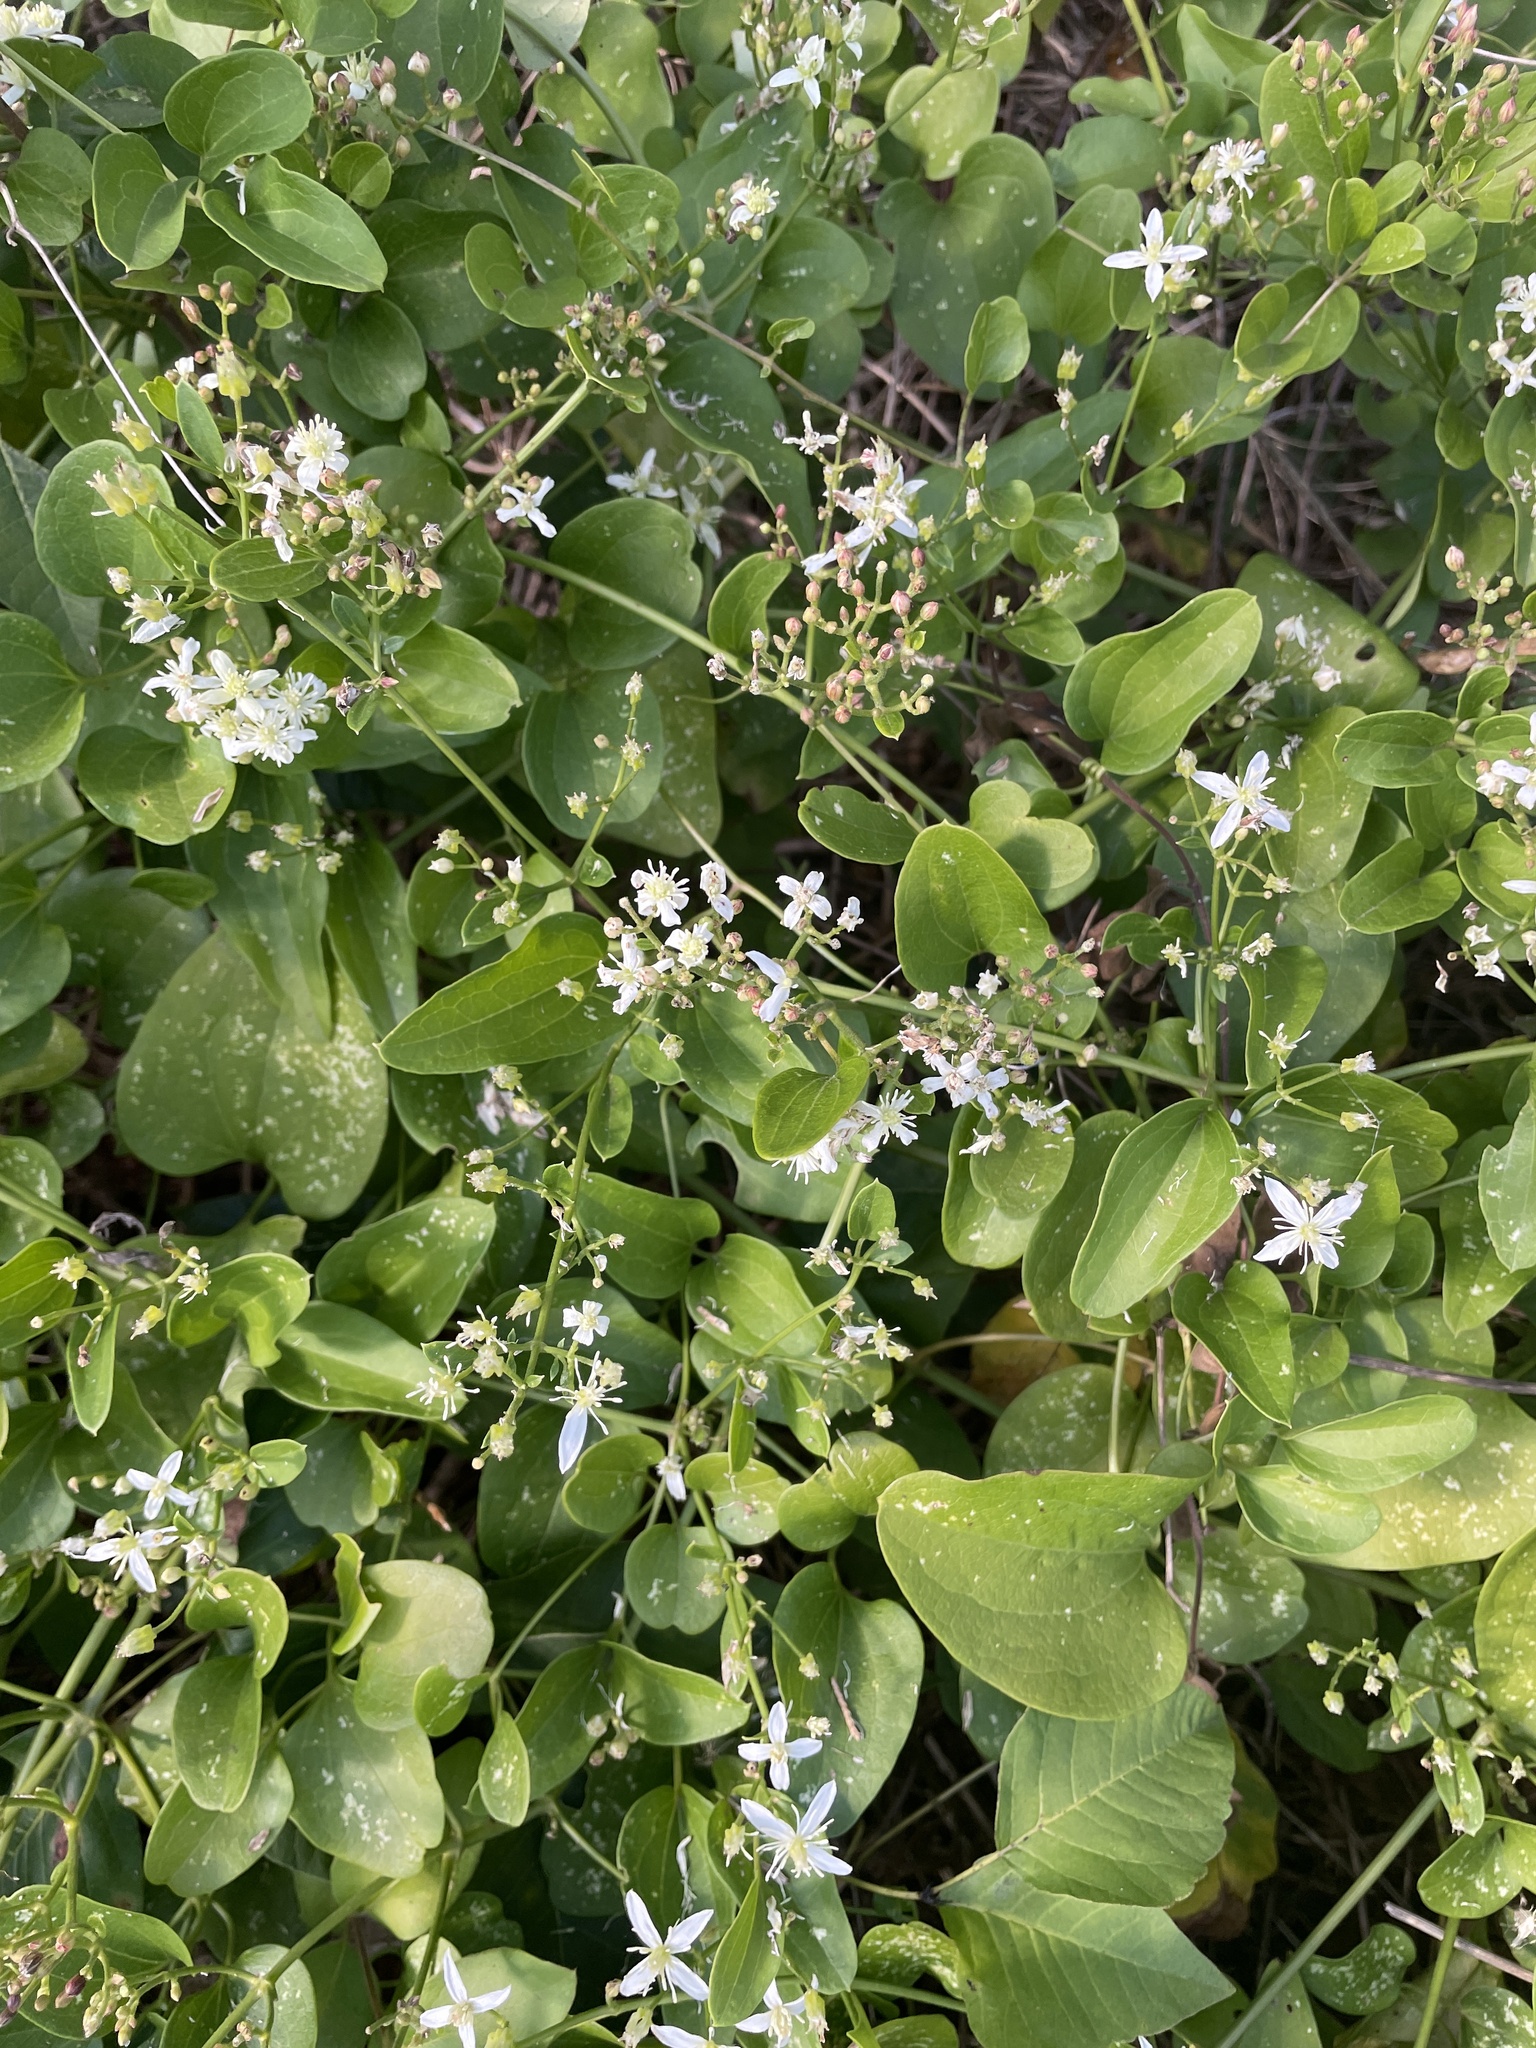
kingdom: Plantae
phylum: Tracheophyta
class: Magnoliopsida
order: Ranunculales
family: Ranunculaceae
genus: Clematis
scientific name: Clematis terniflora
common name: Sweet autumn clematis
